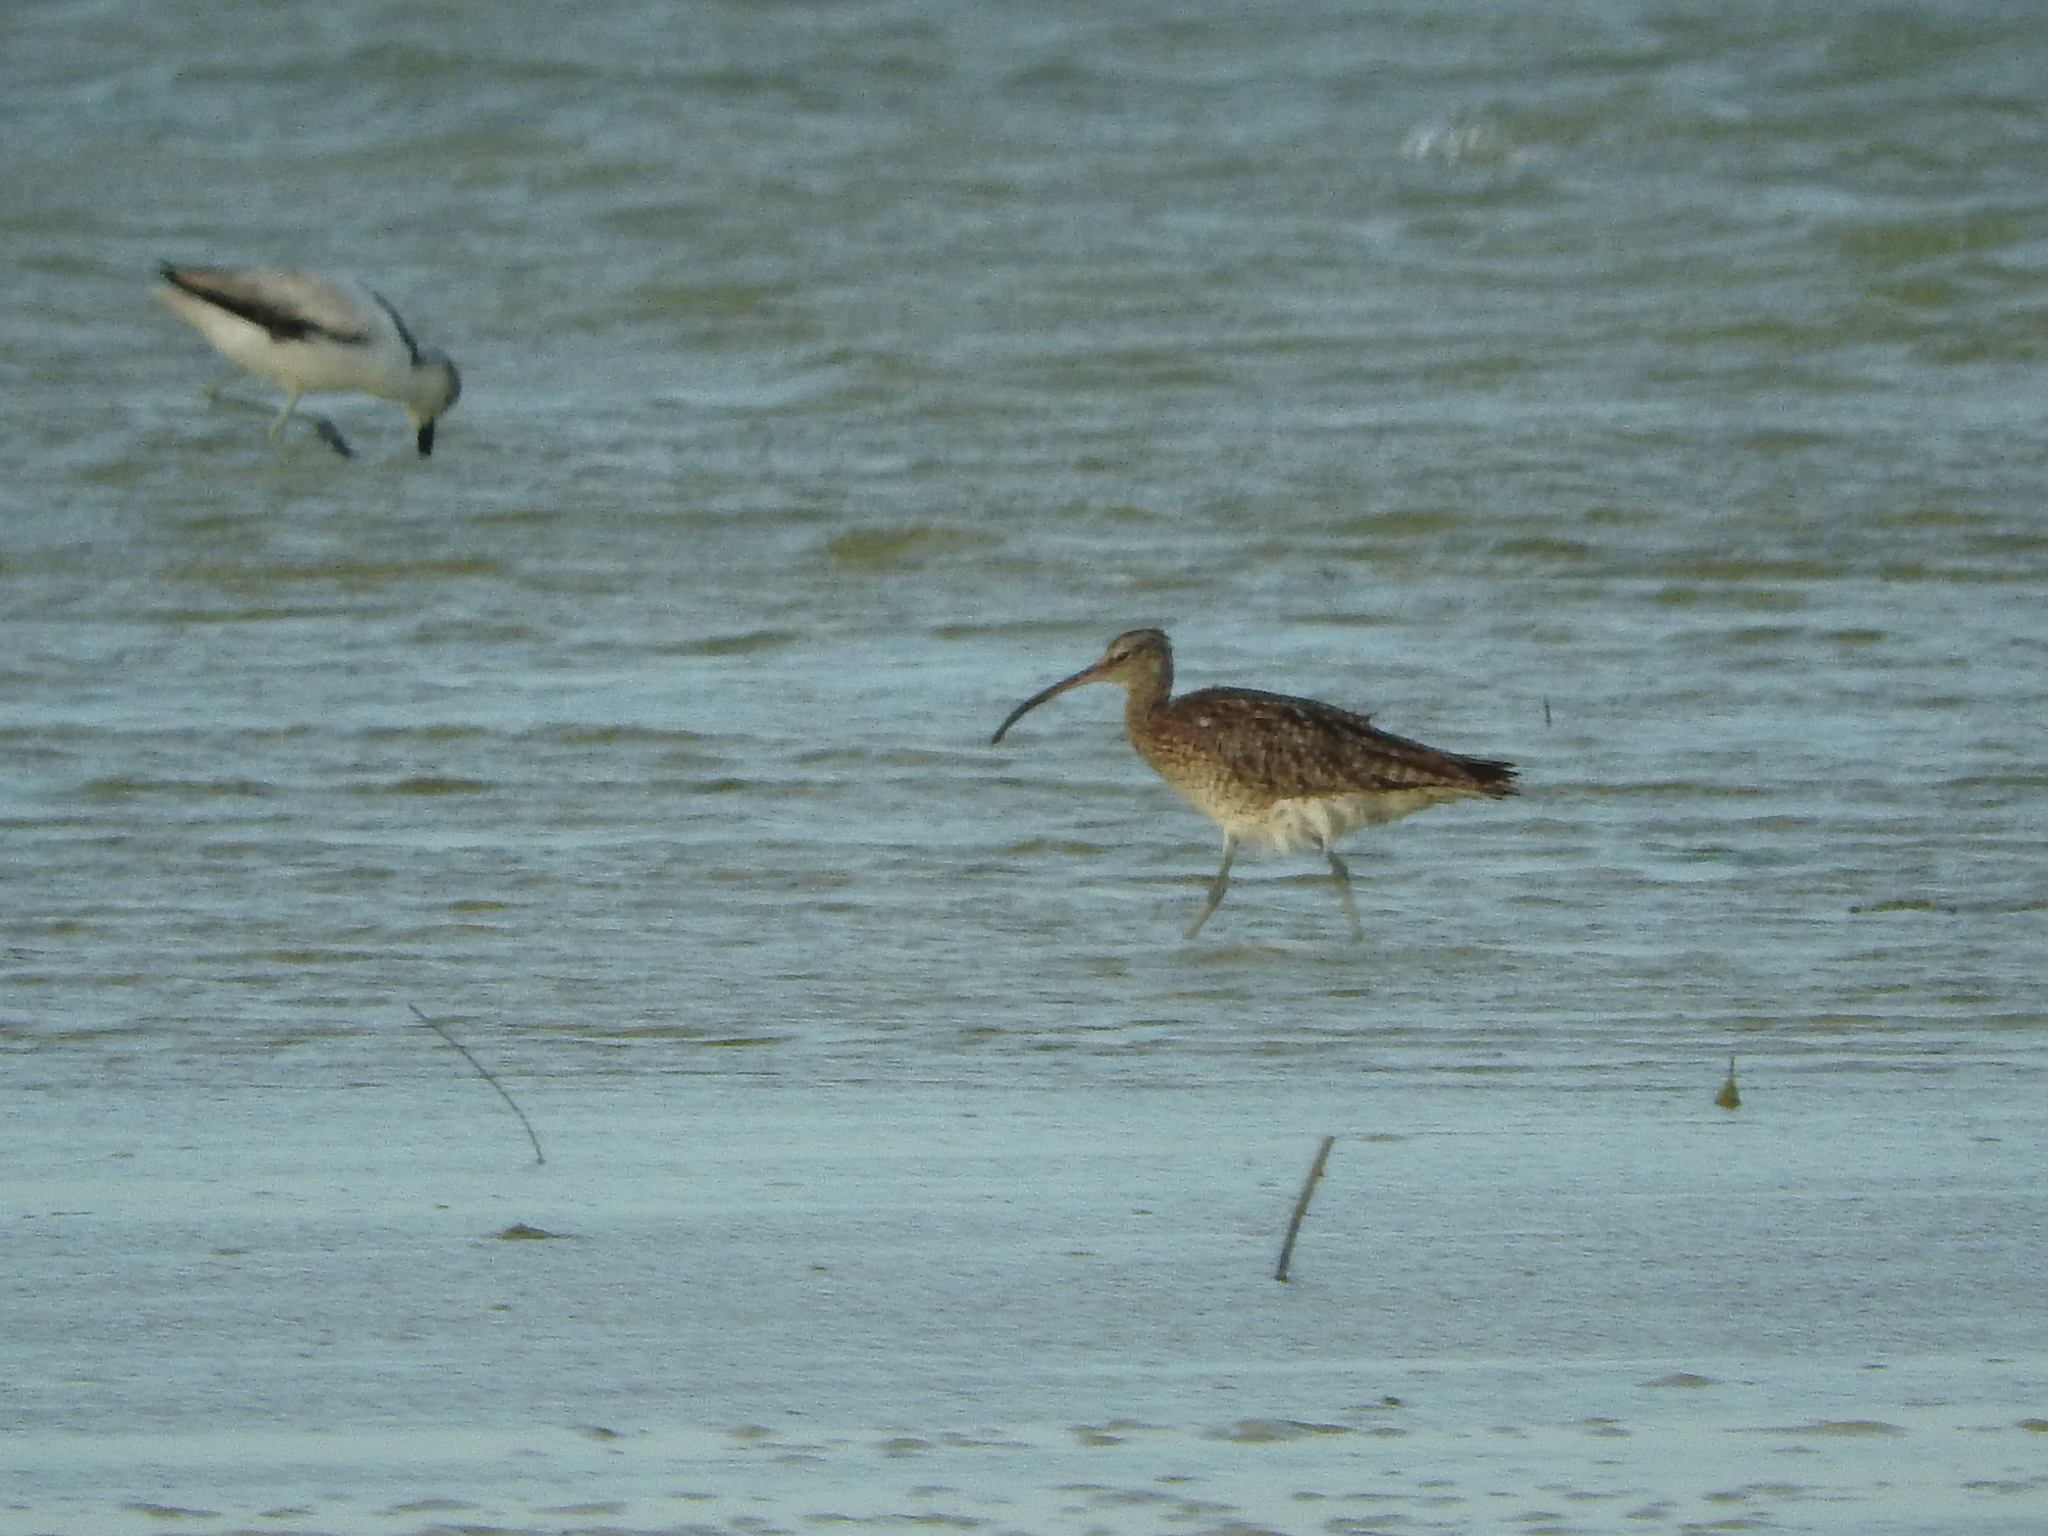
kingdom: Animalia
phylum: Chordata
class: Aves
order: Charadriiformes
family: Scolopacidae
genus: Numenius
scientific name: Numenius phaeopus
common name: Whimbrel
